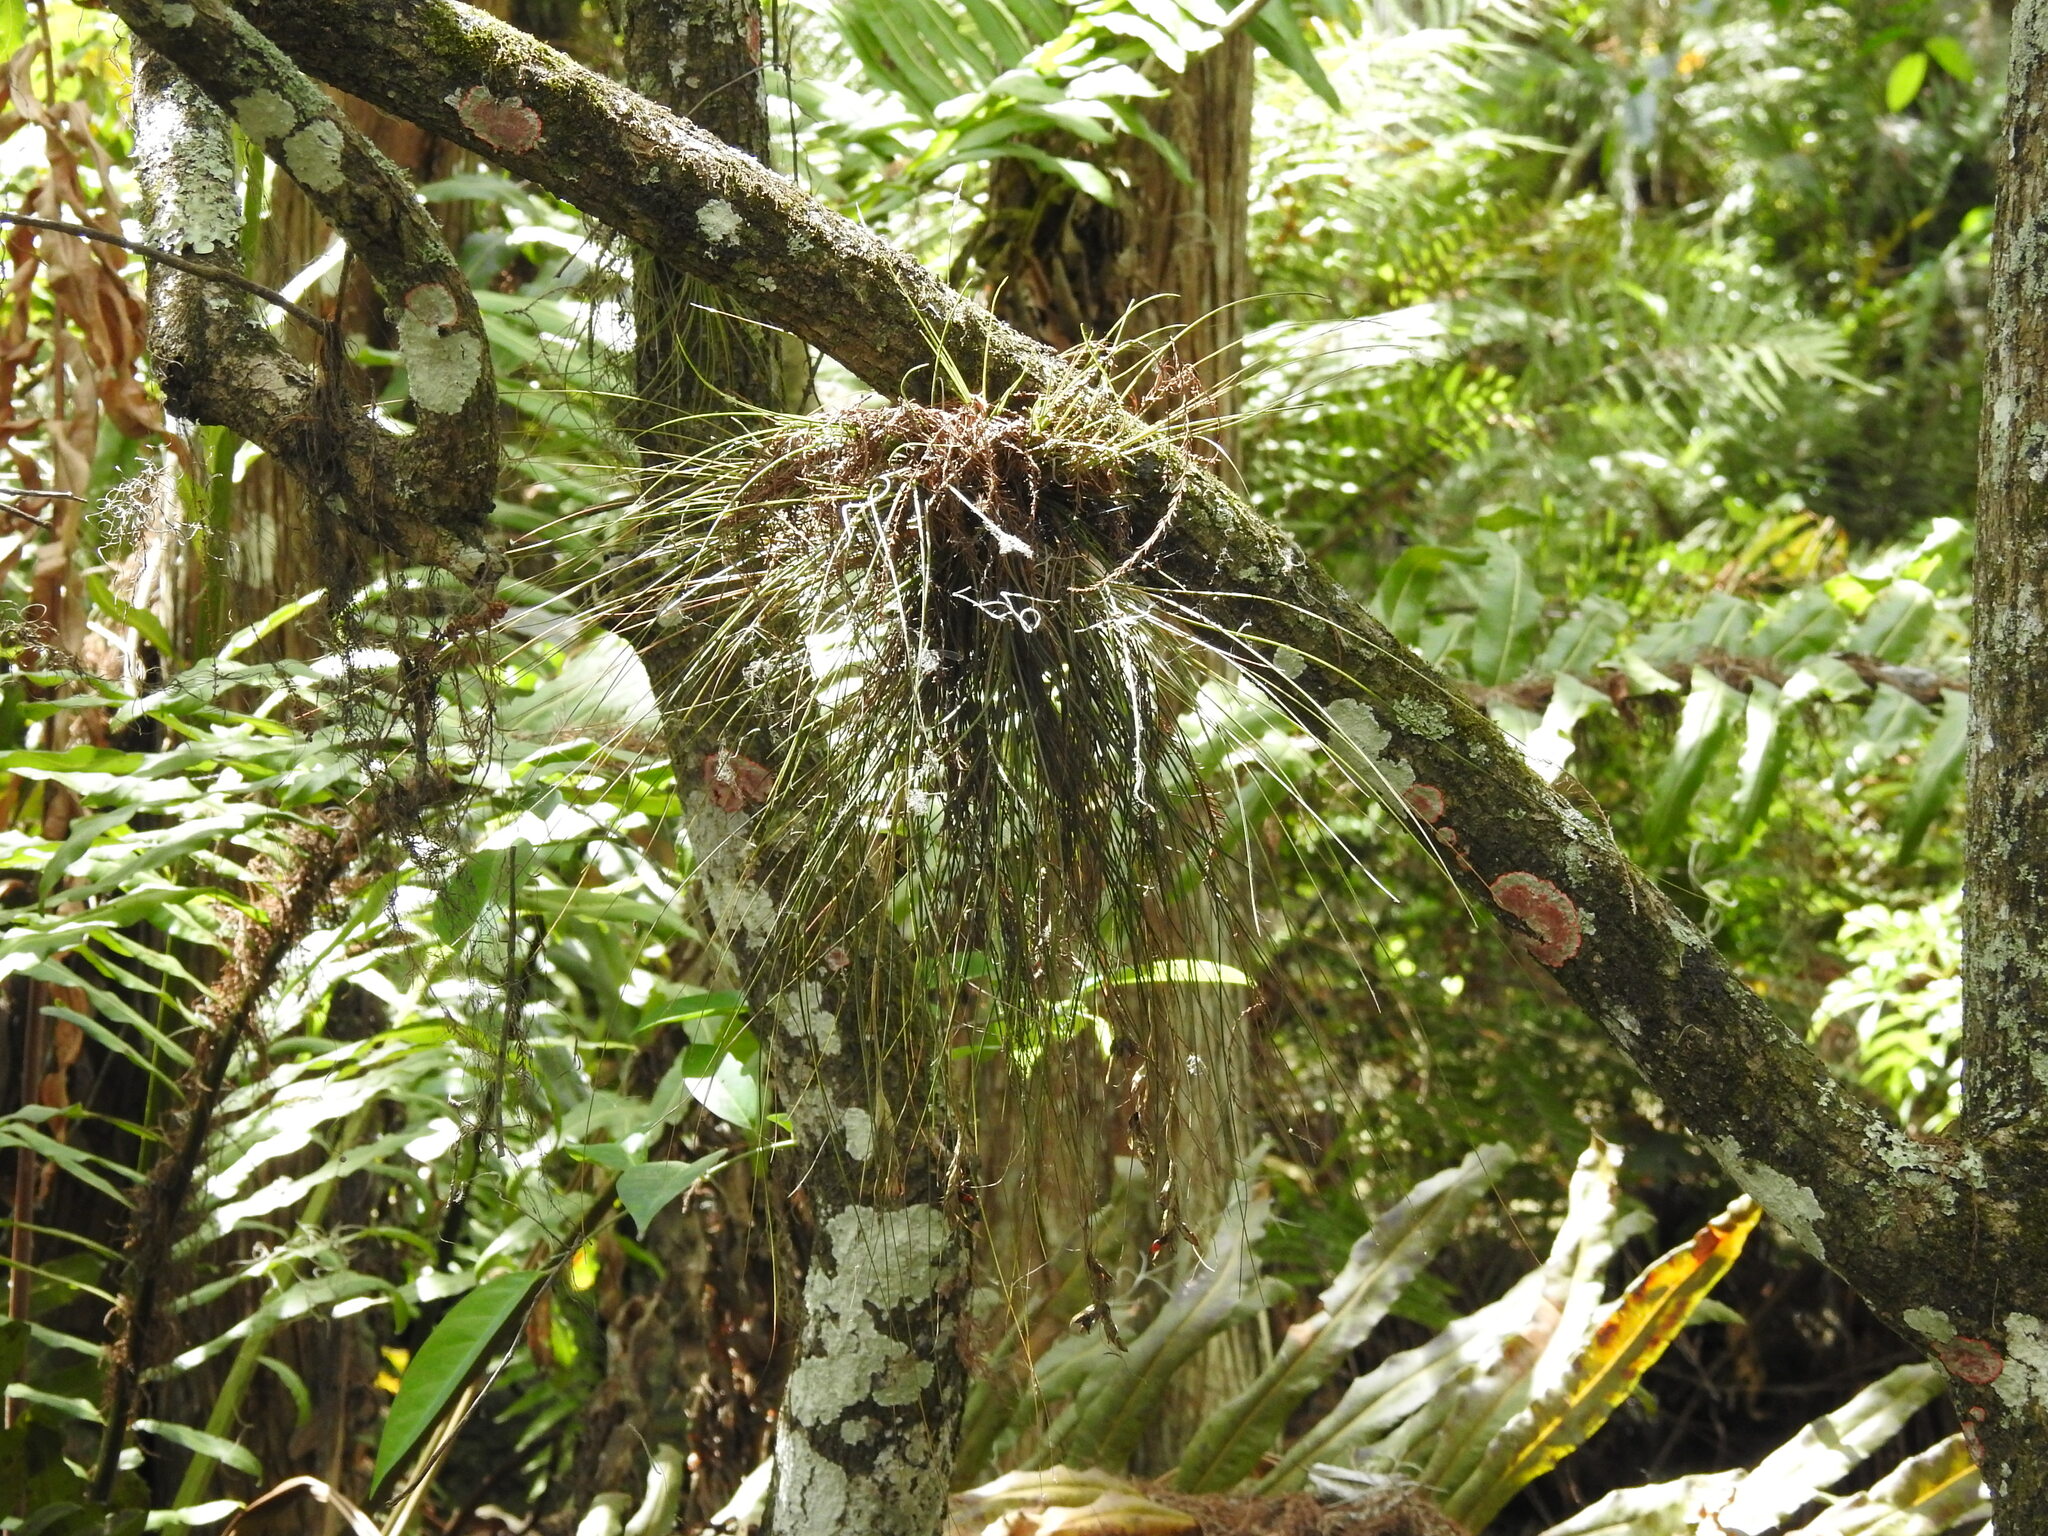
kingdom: Plantae
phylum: Tracheophyta
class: Liliopsida
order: Poales
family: Bromeliaceae
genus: Tillandsia
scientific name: Tillandsia setacea
